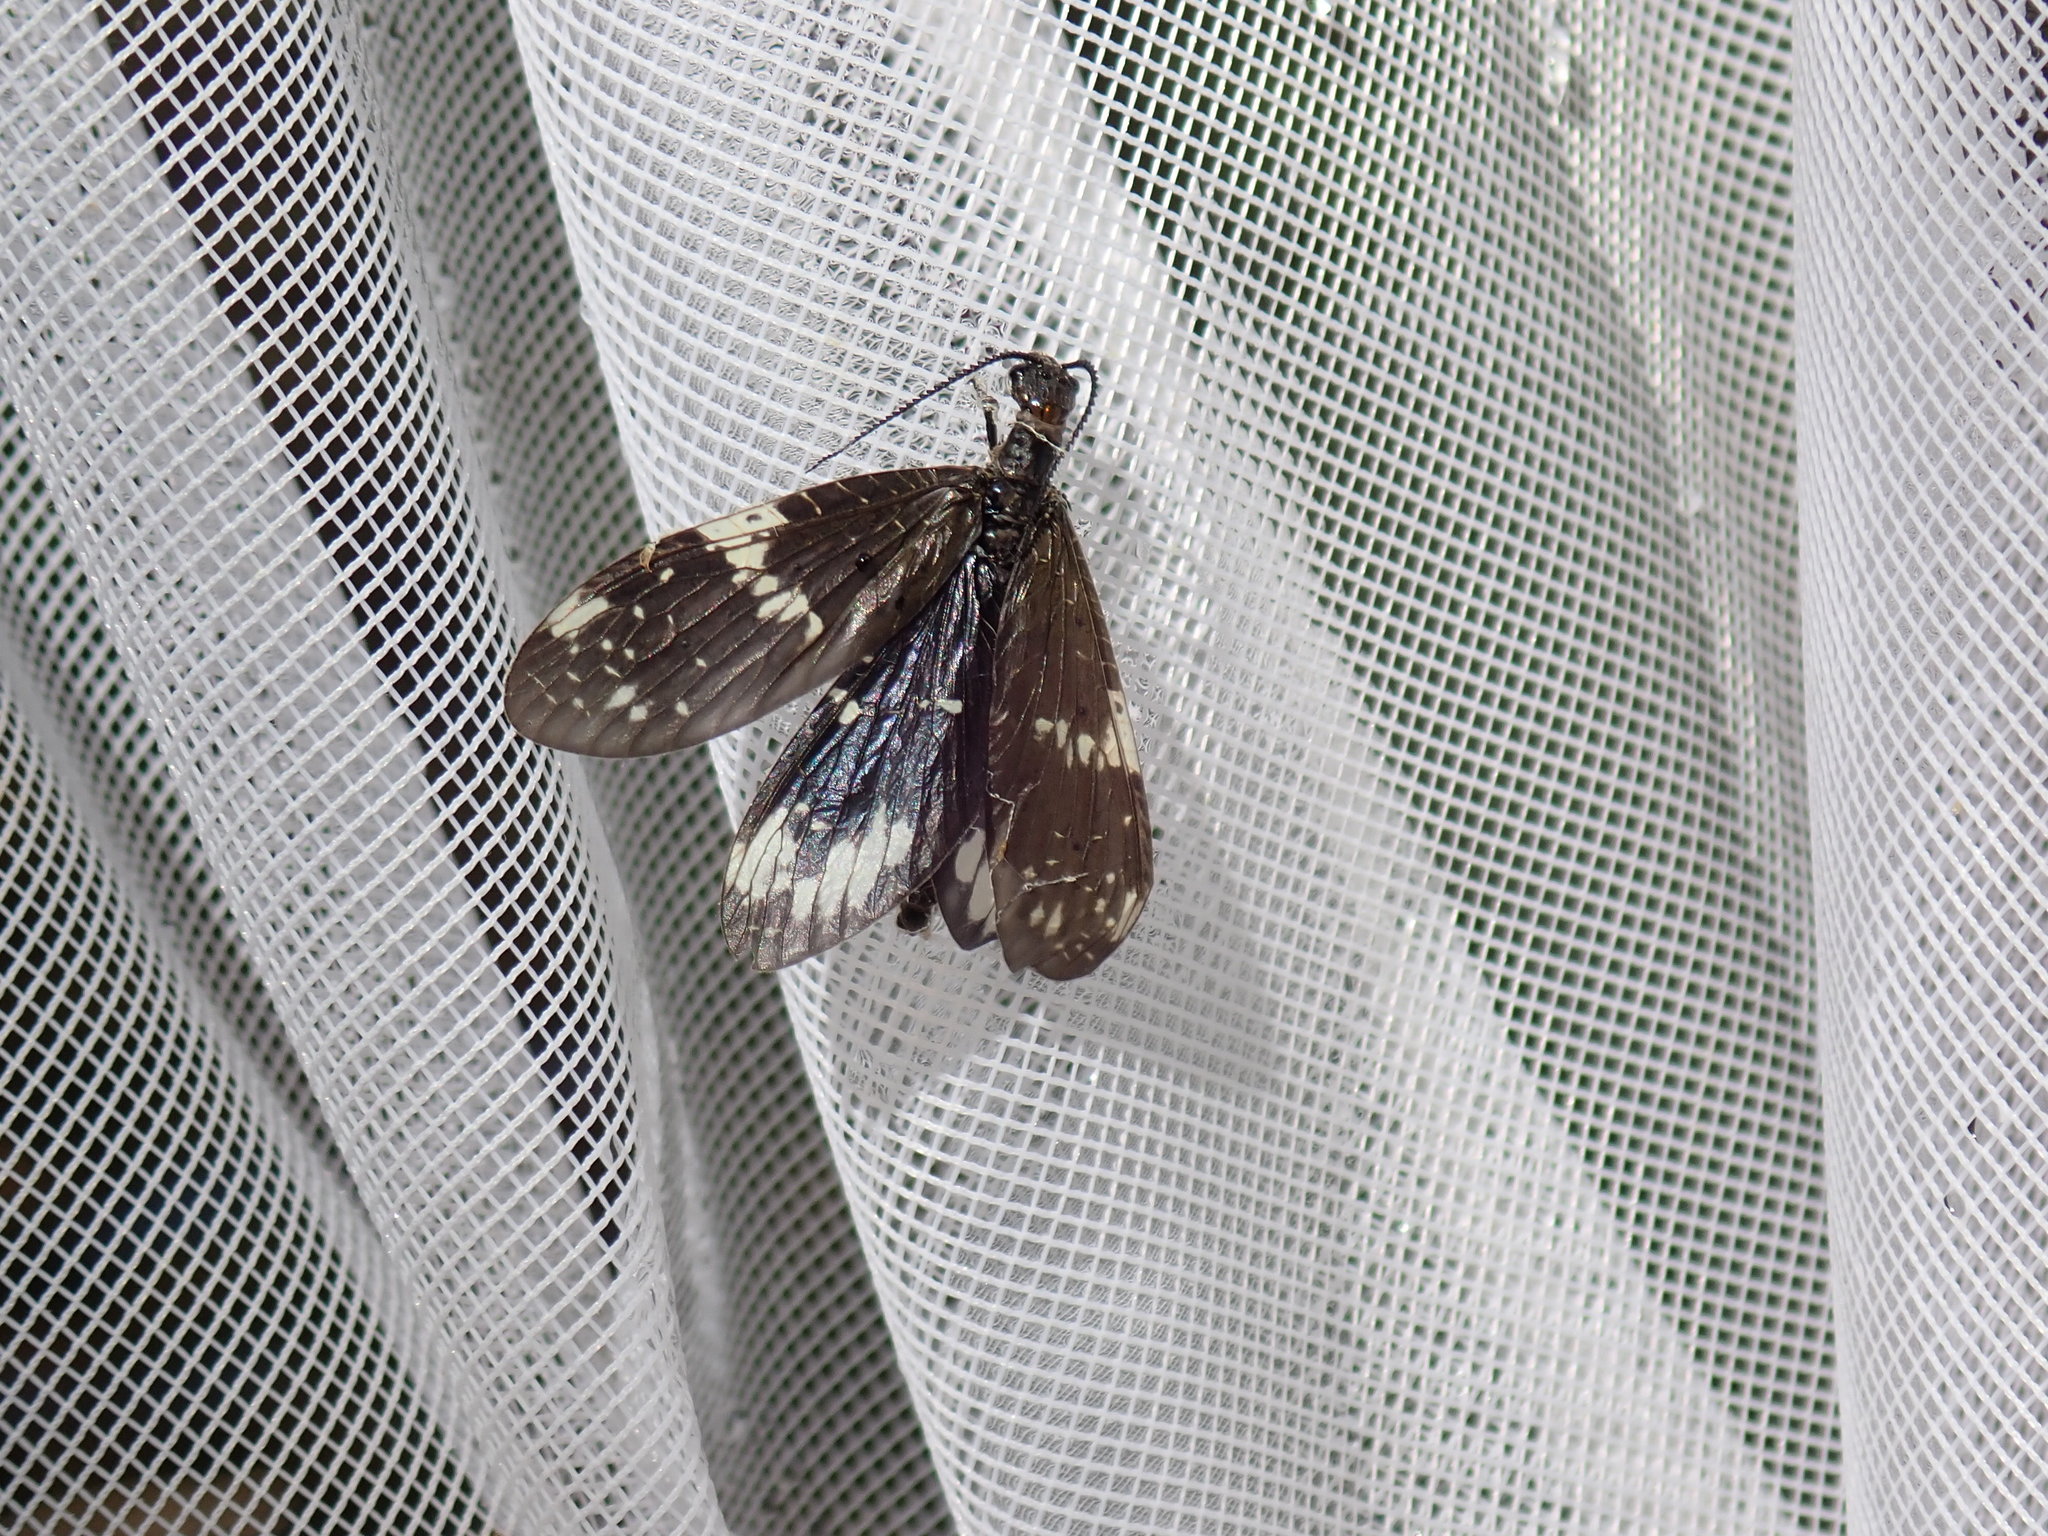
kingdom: Animalia
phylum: Arthropoda
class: Insecta
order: Megaloptera
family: Corydalidae
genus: Nigronia
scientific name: Nigronia serricornis
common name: Serrate dark fishfly
